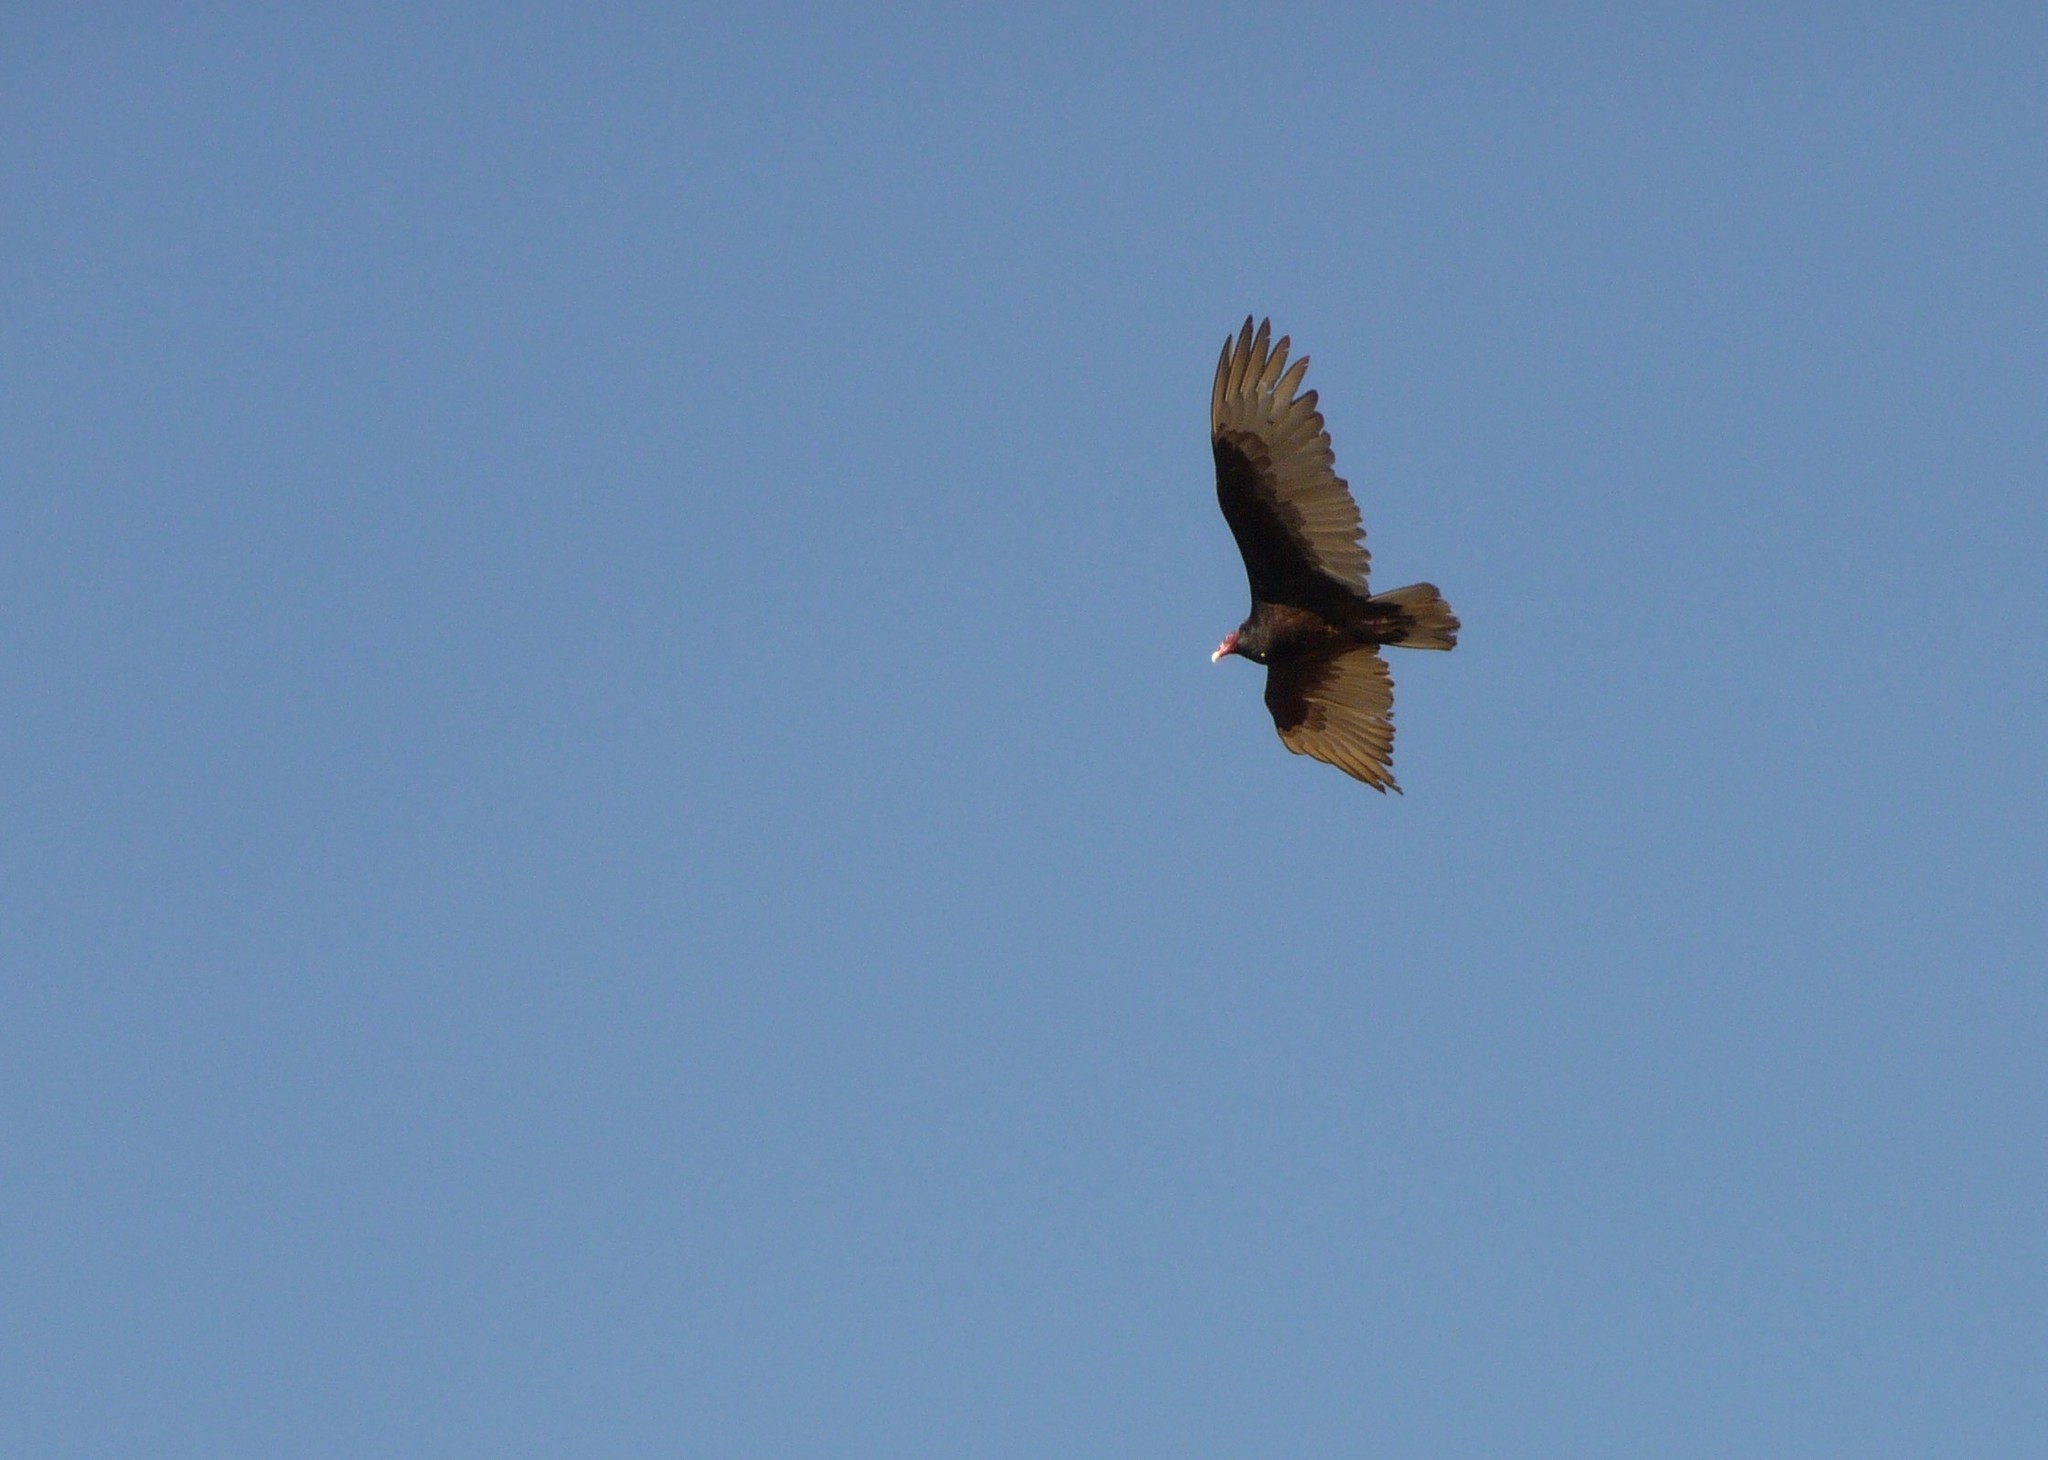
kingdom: Animalia
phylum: Chordata
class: Aves
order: Accipitriformes
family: Cathartidae
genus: Cathartes
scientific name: Cathartes aura
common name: Turkey vulture
